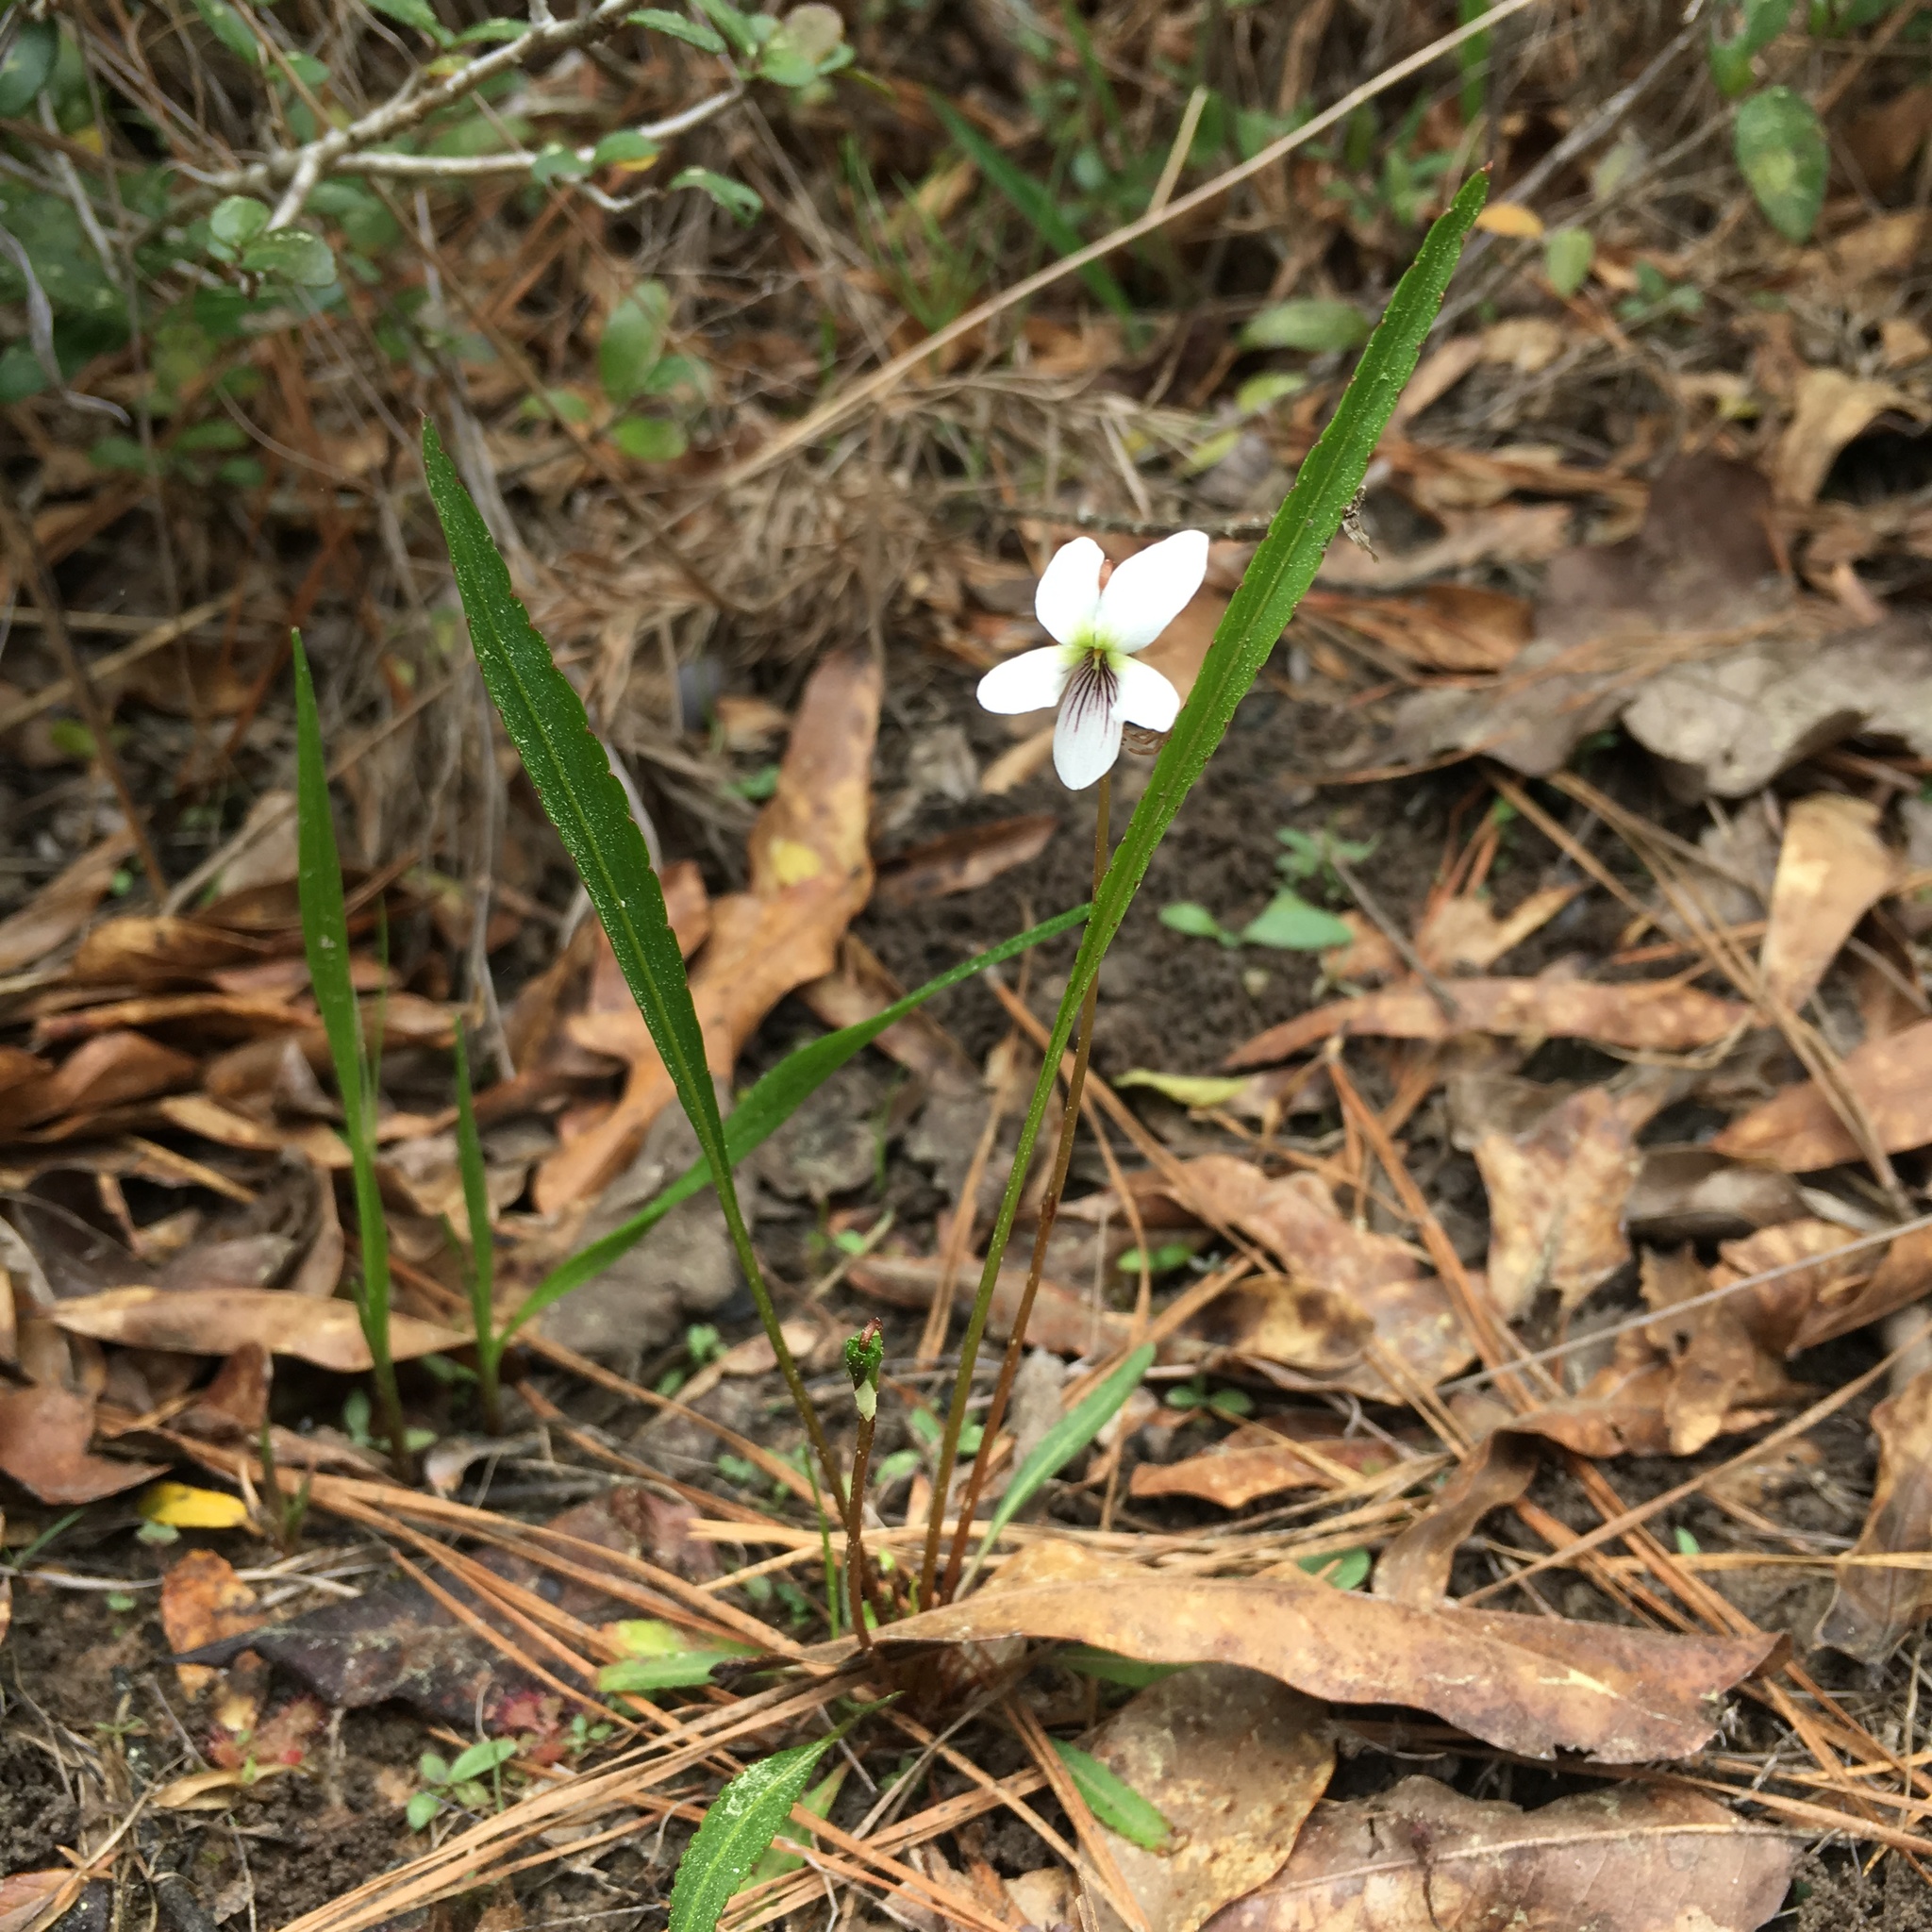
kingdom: Plantae
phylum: Tracheophyta
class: Magnoliopsida
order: Malpighiales
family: Violaceae
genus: Viola
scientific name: Viola vittata
